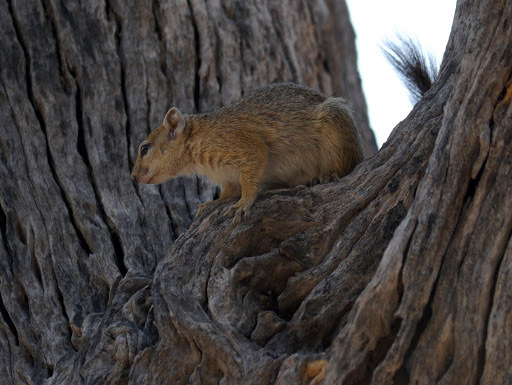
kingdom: Animalia
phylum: Chordata
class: Mammalia
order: Rodentia
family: Sciuridae
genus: Paraxerus
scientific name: Paraxerus cepapi
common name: Smith's bush squirrel
